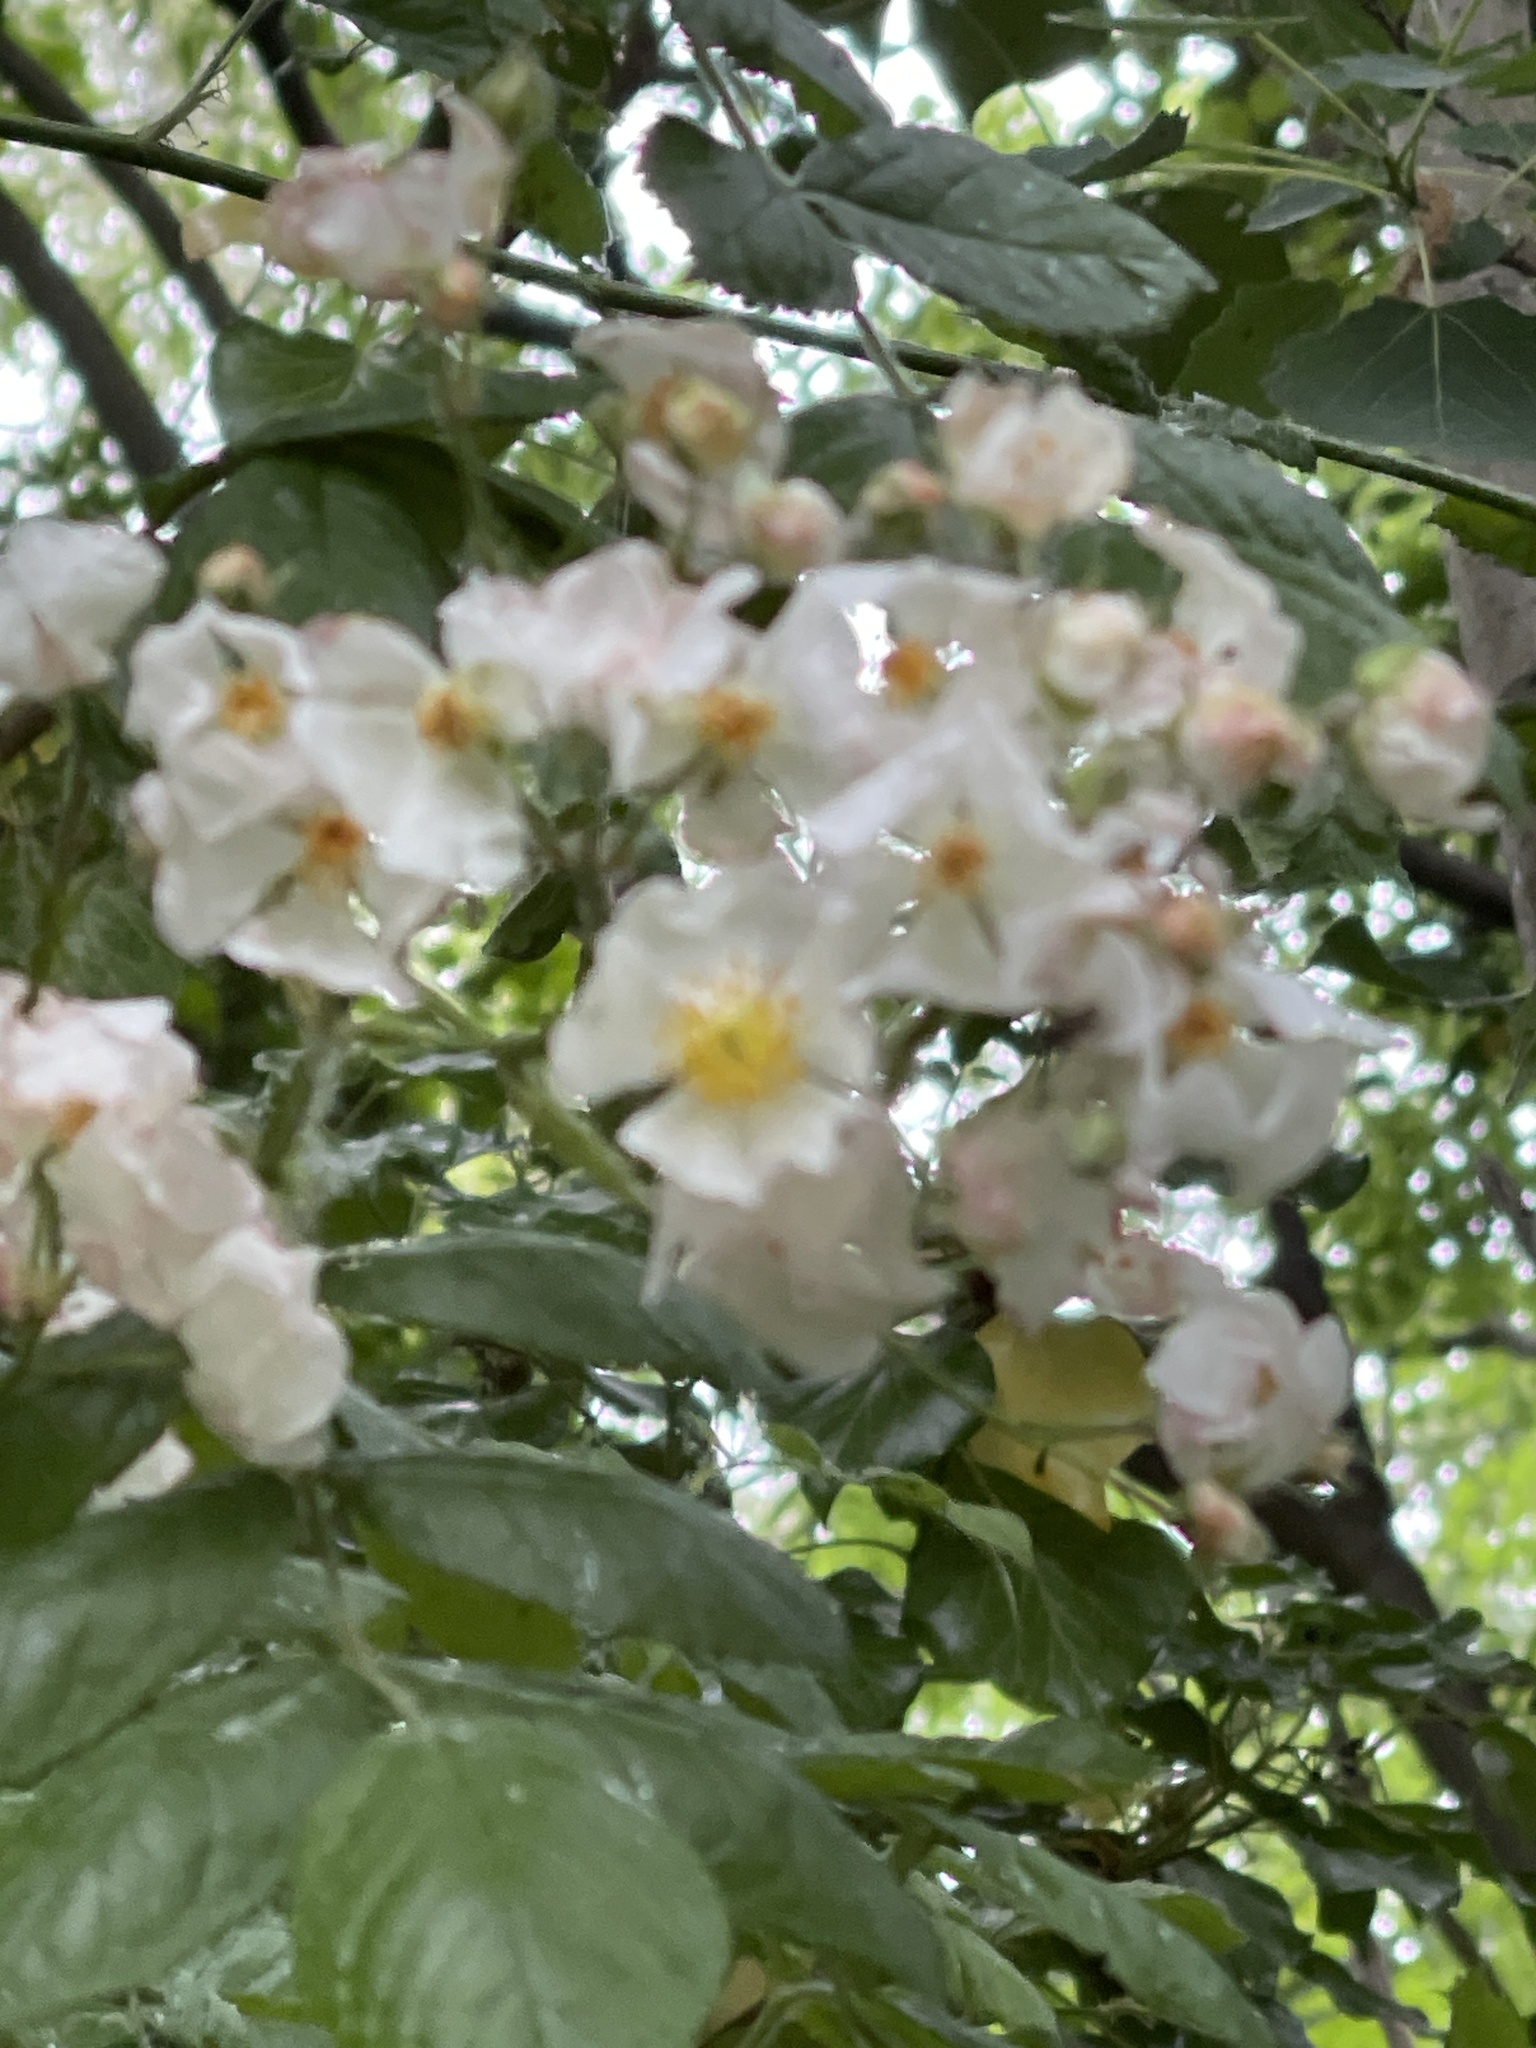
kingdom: Plantae
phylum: Tracheophyta
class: Magnoliopsida
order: Rosales
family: Rosaceae
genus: Rosa
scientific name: Rosa multiflora
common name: Multiflora rose
